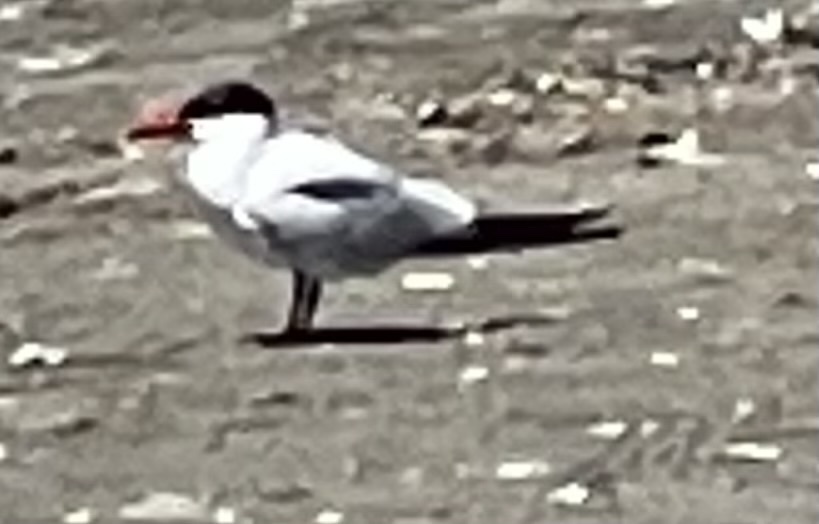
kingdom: Animalia
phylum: Chordata
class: Aves
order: Charadriiformes
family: Laridae
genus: Hydroprogne
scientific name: Hydroprogne caspia
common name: Caspian tern
